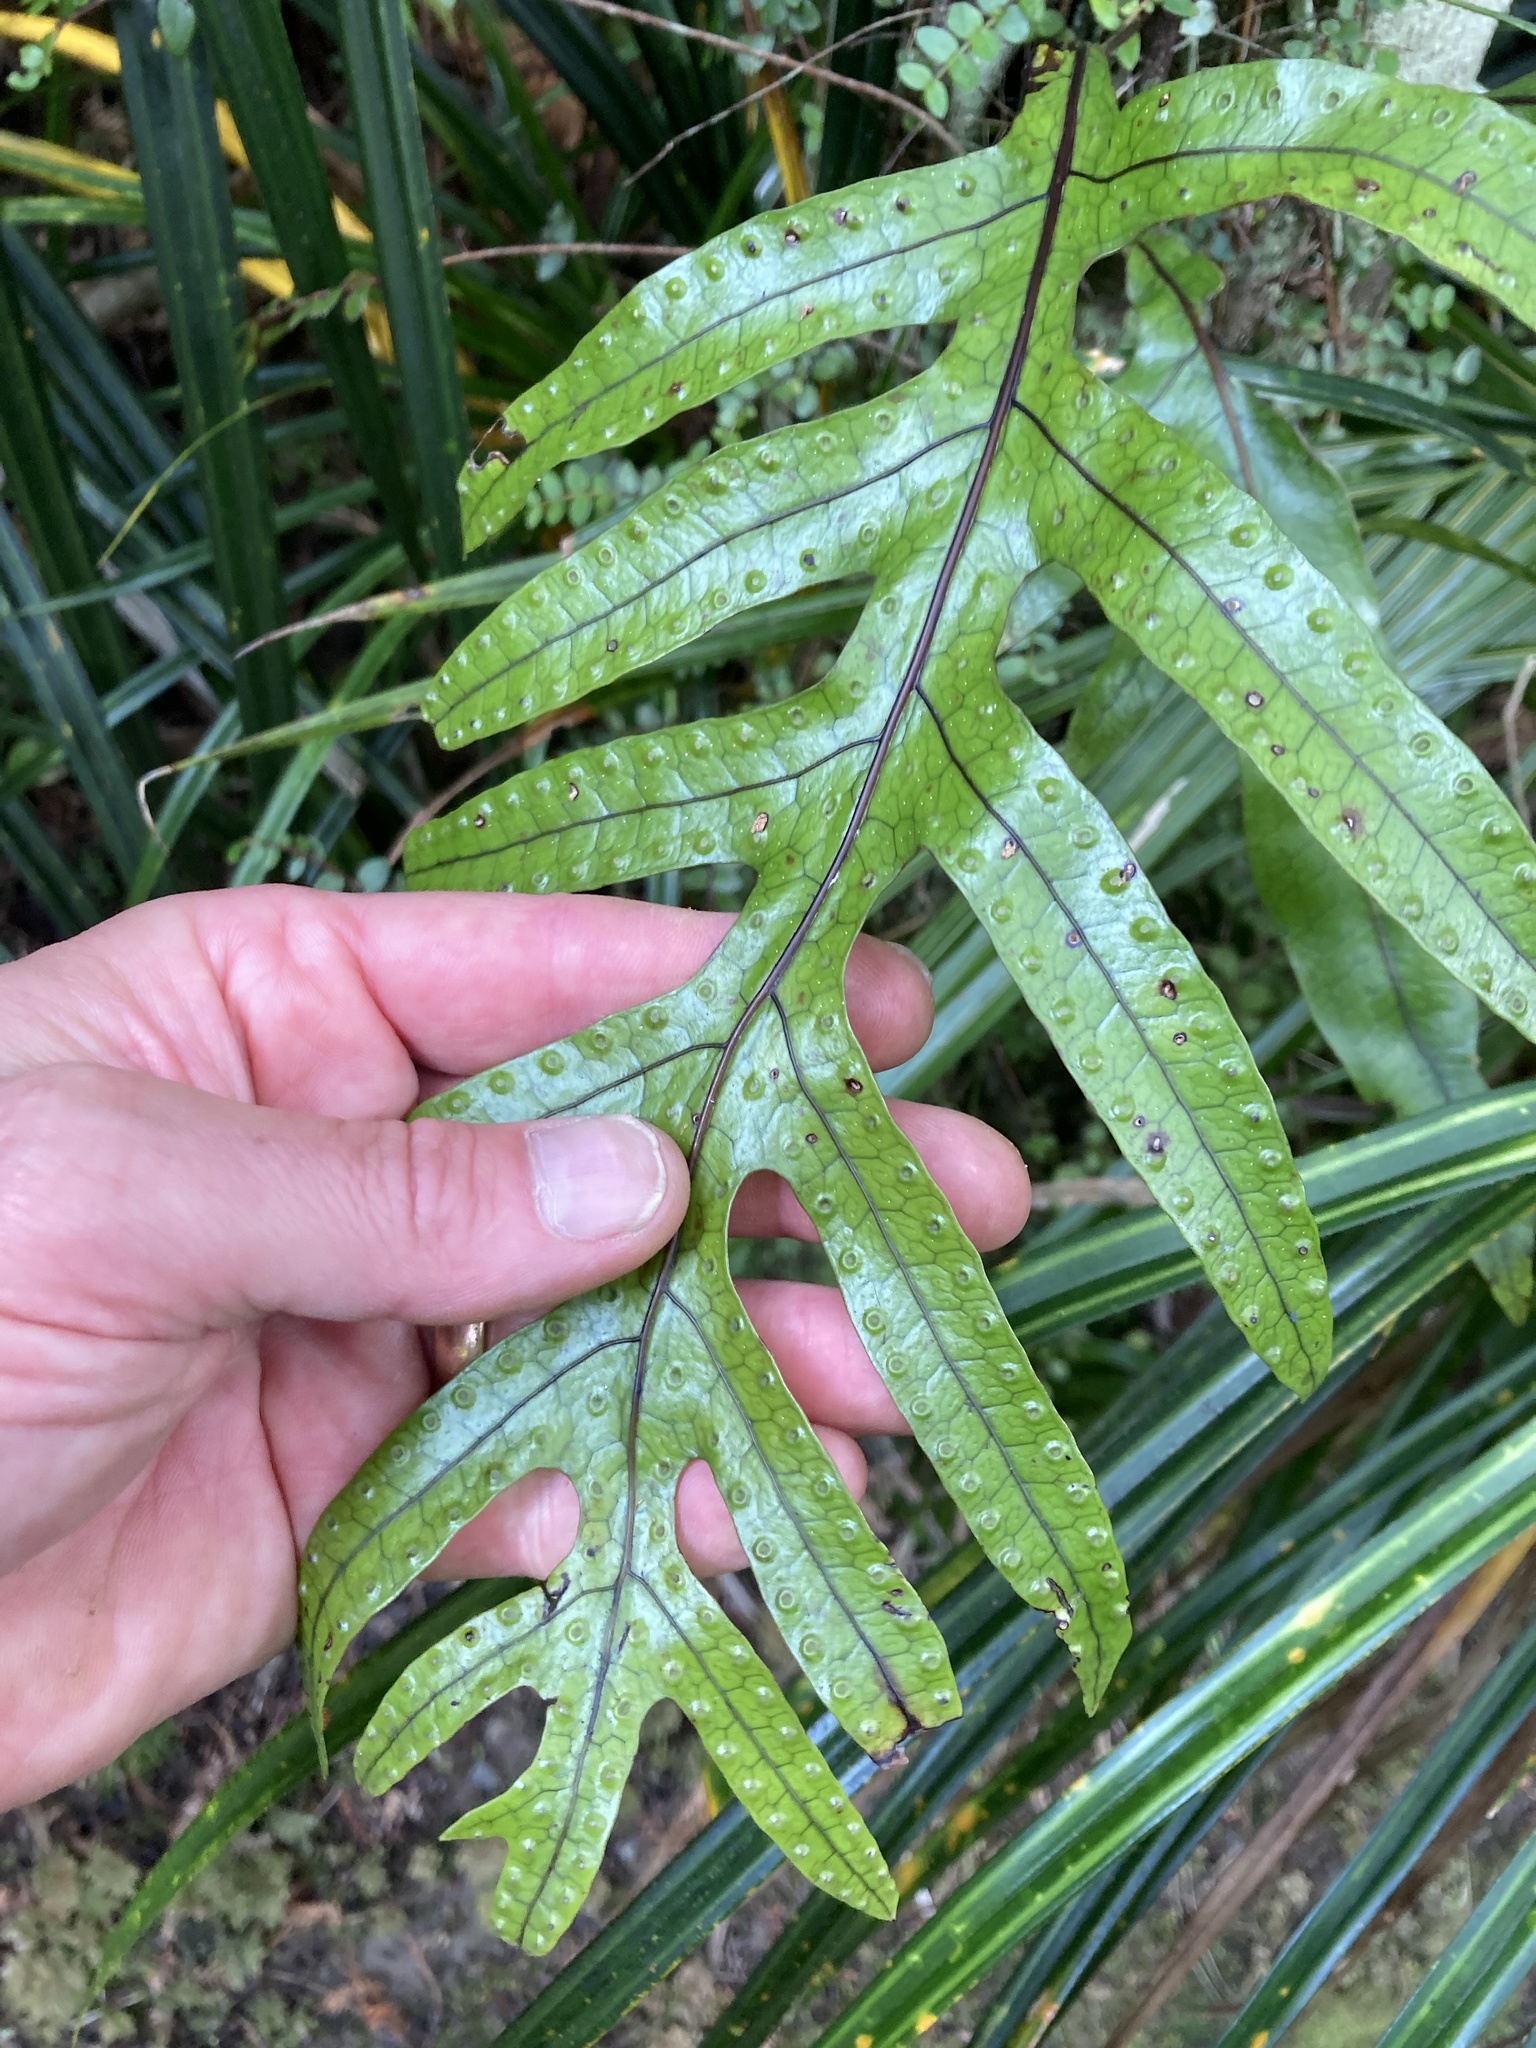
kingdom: Plantae
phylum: Tracheophyta
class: Polypodiopsida
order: Polypodiales
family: Polypodiaceae
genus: Lecanopteris
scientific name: Lecanopteris pustulata
